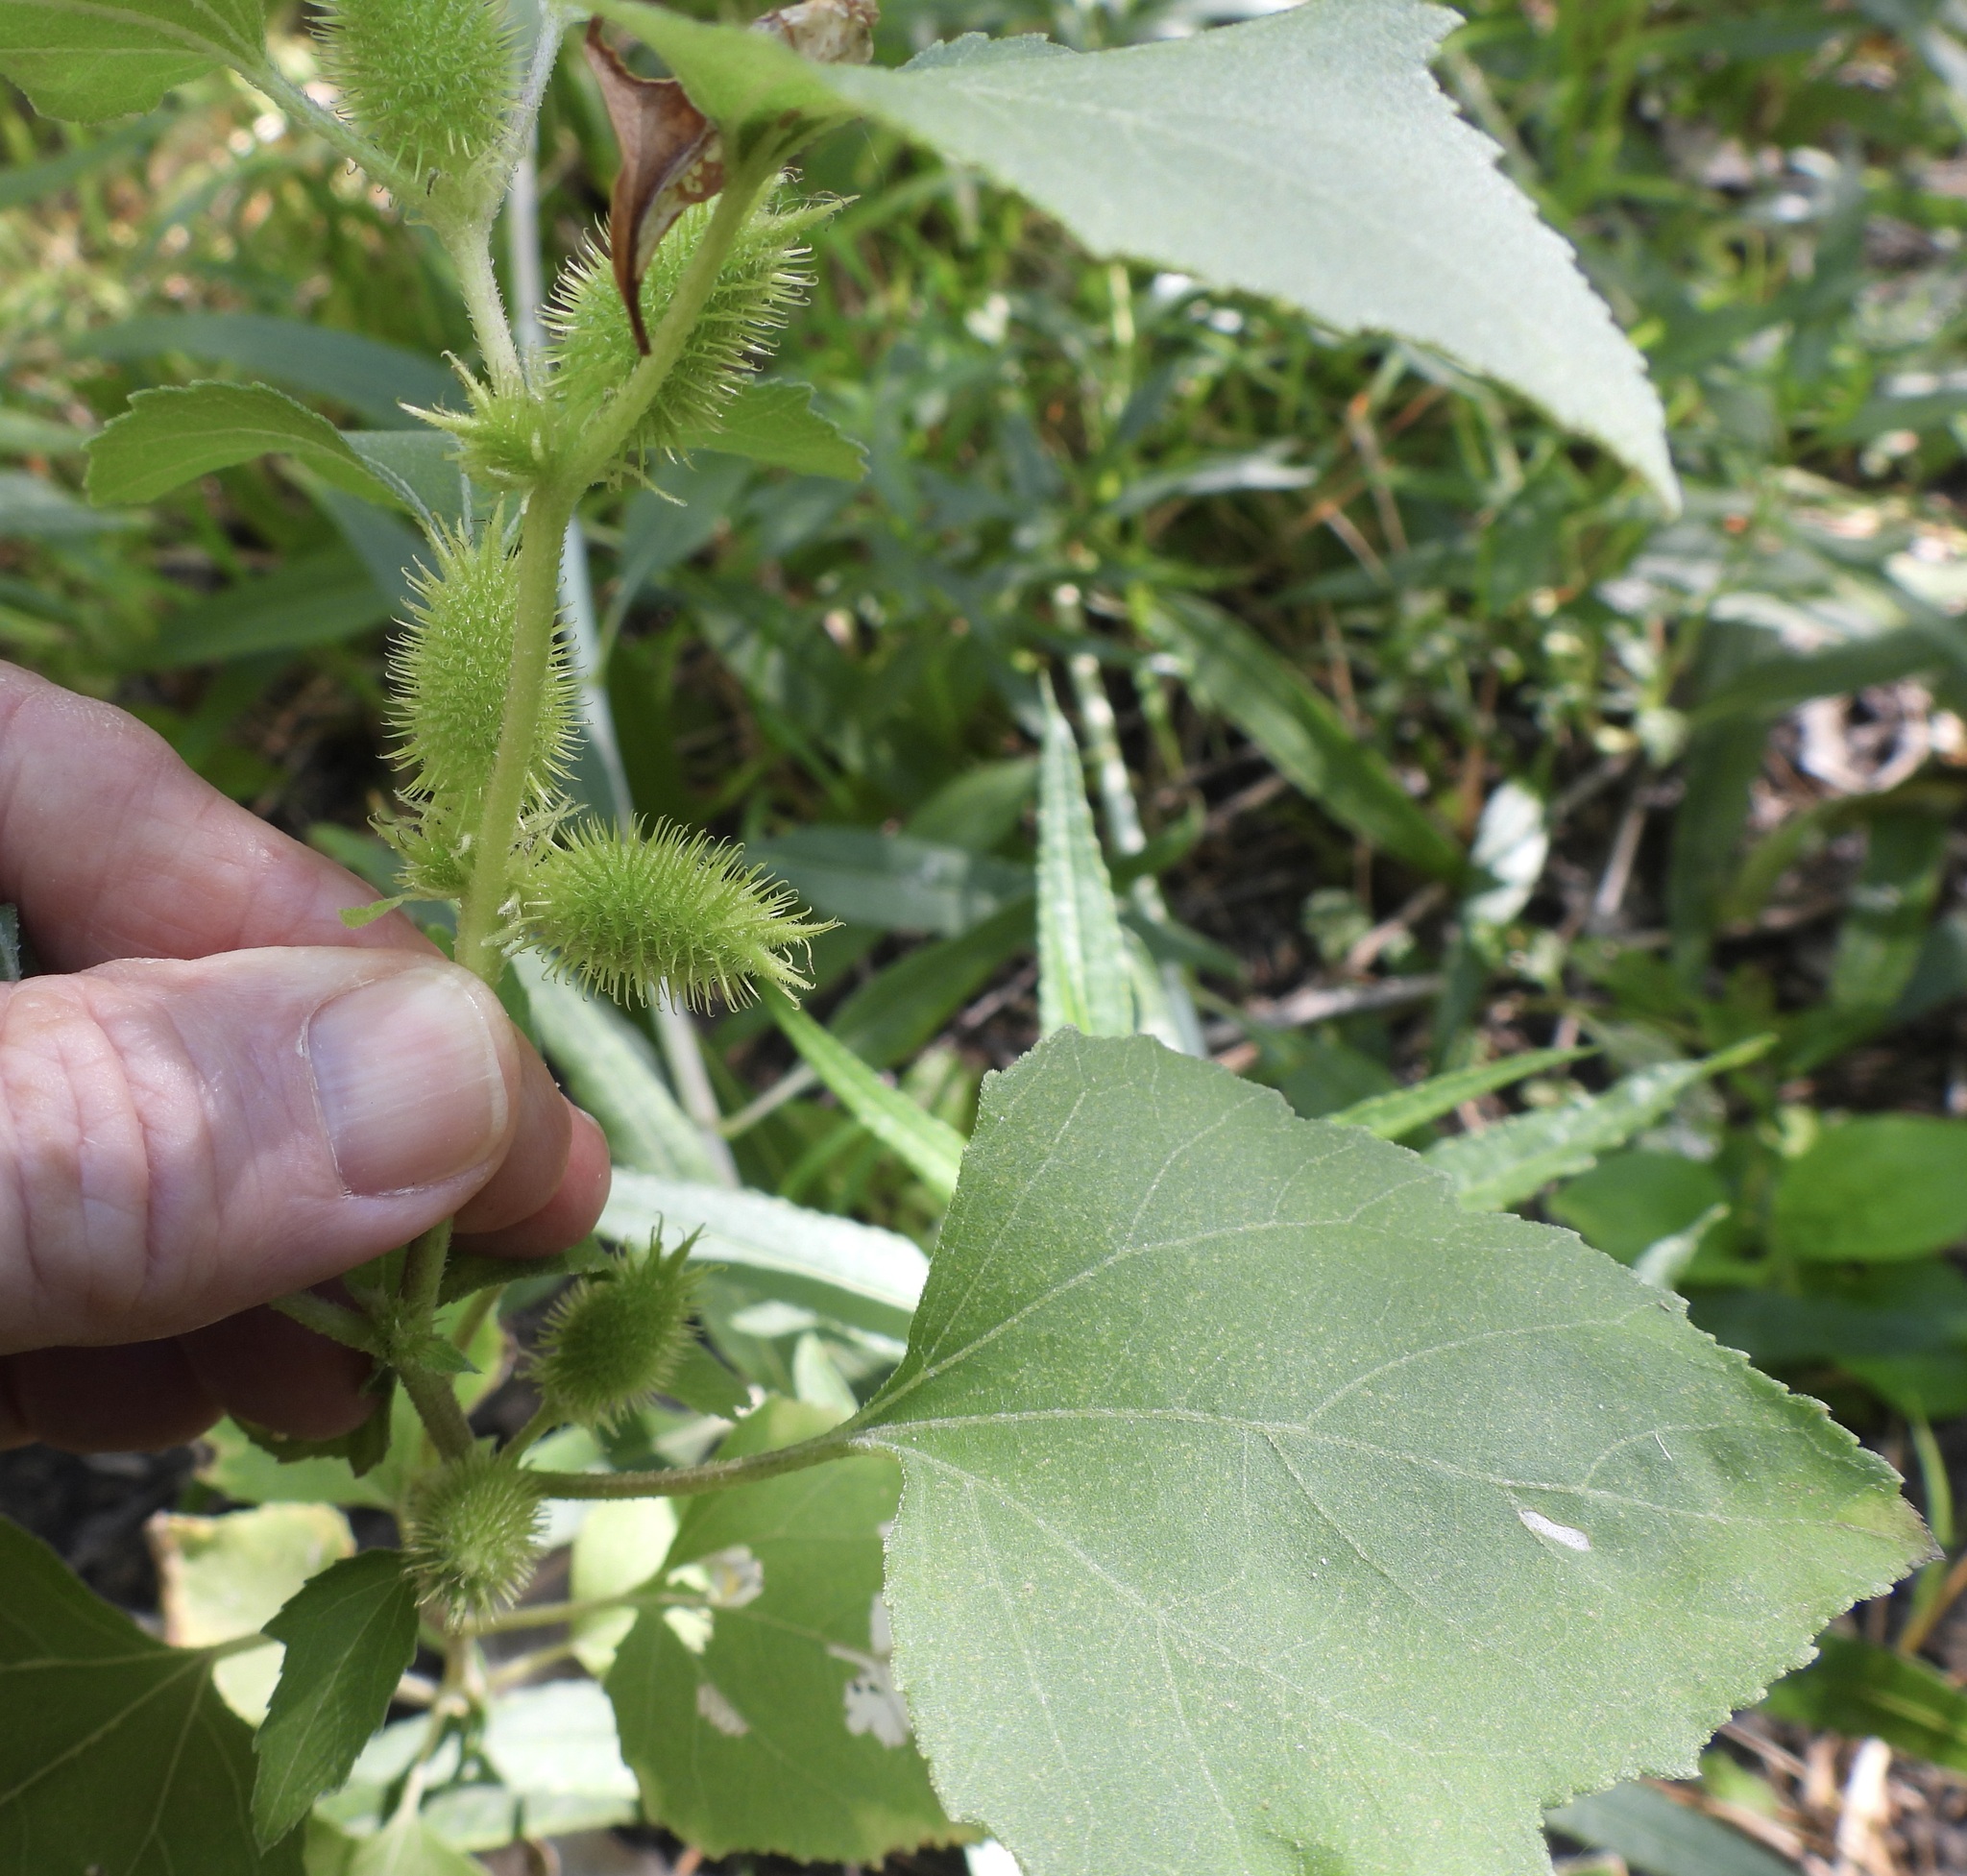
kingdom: Plantae
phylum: Tracheophyta
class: Magnoliopsida
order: Asterales
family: Asteraceae
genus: Xanthium
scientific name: Xanthium strumarium
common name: Rough cocklebur
